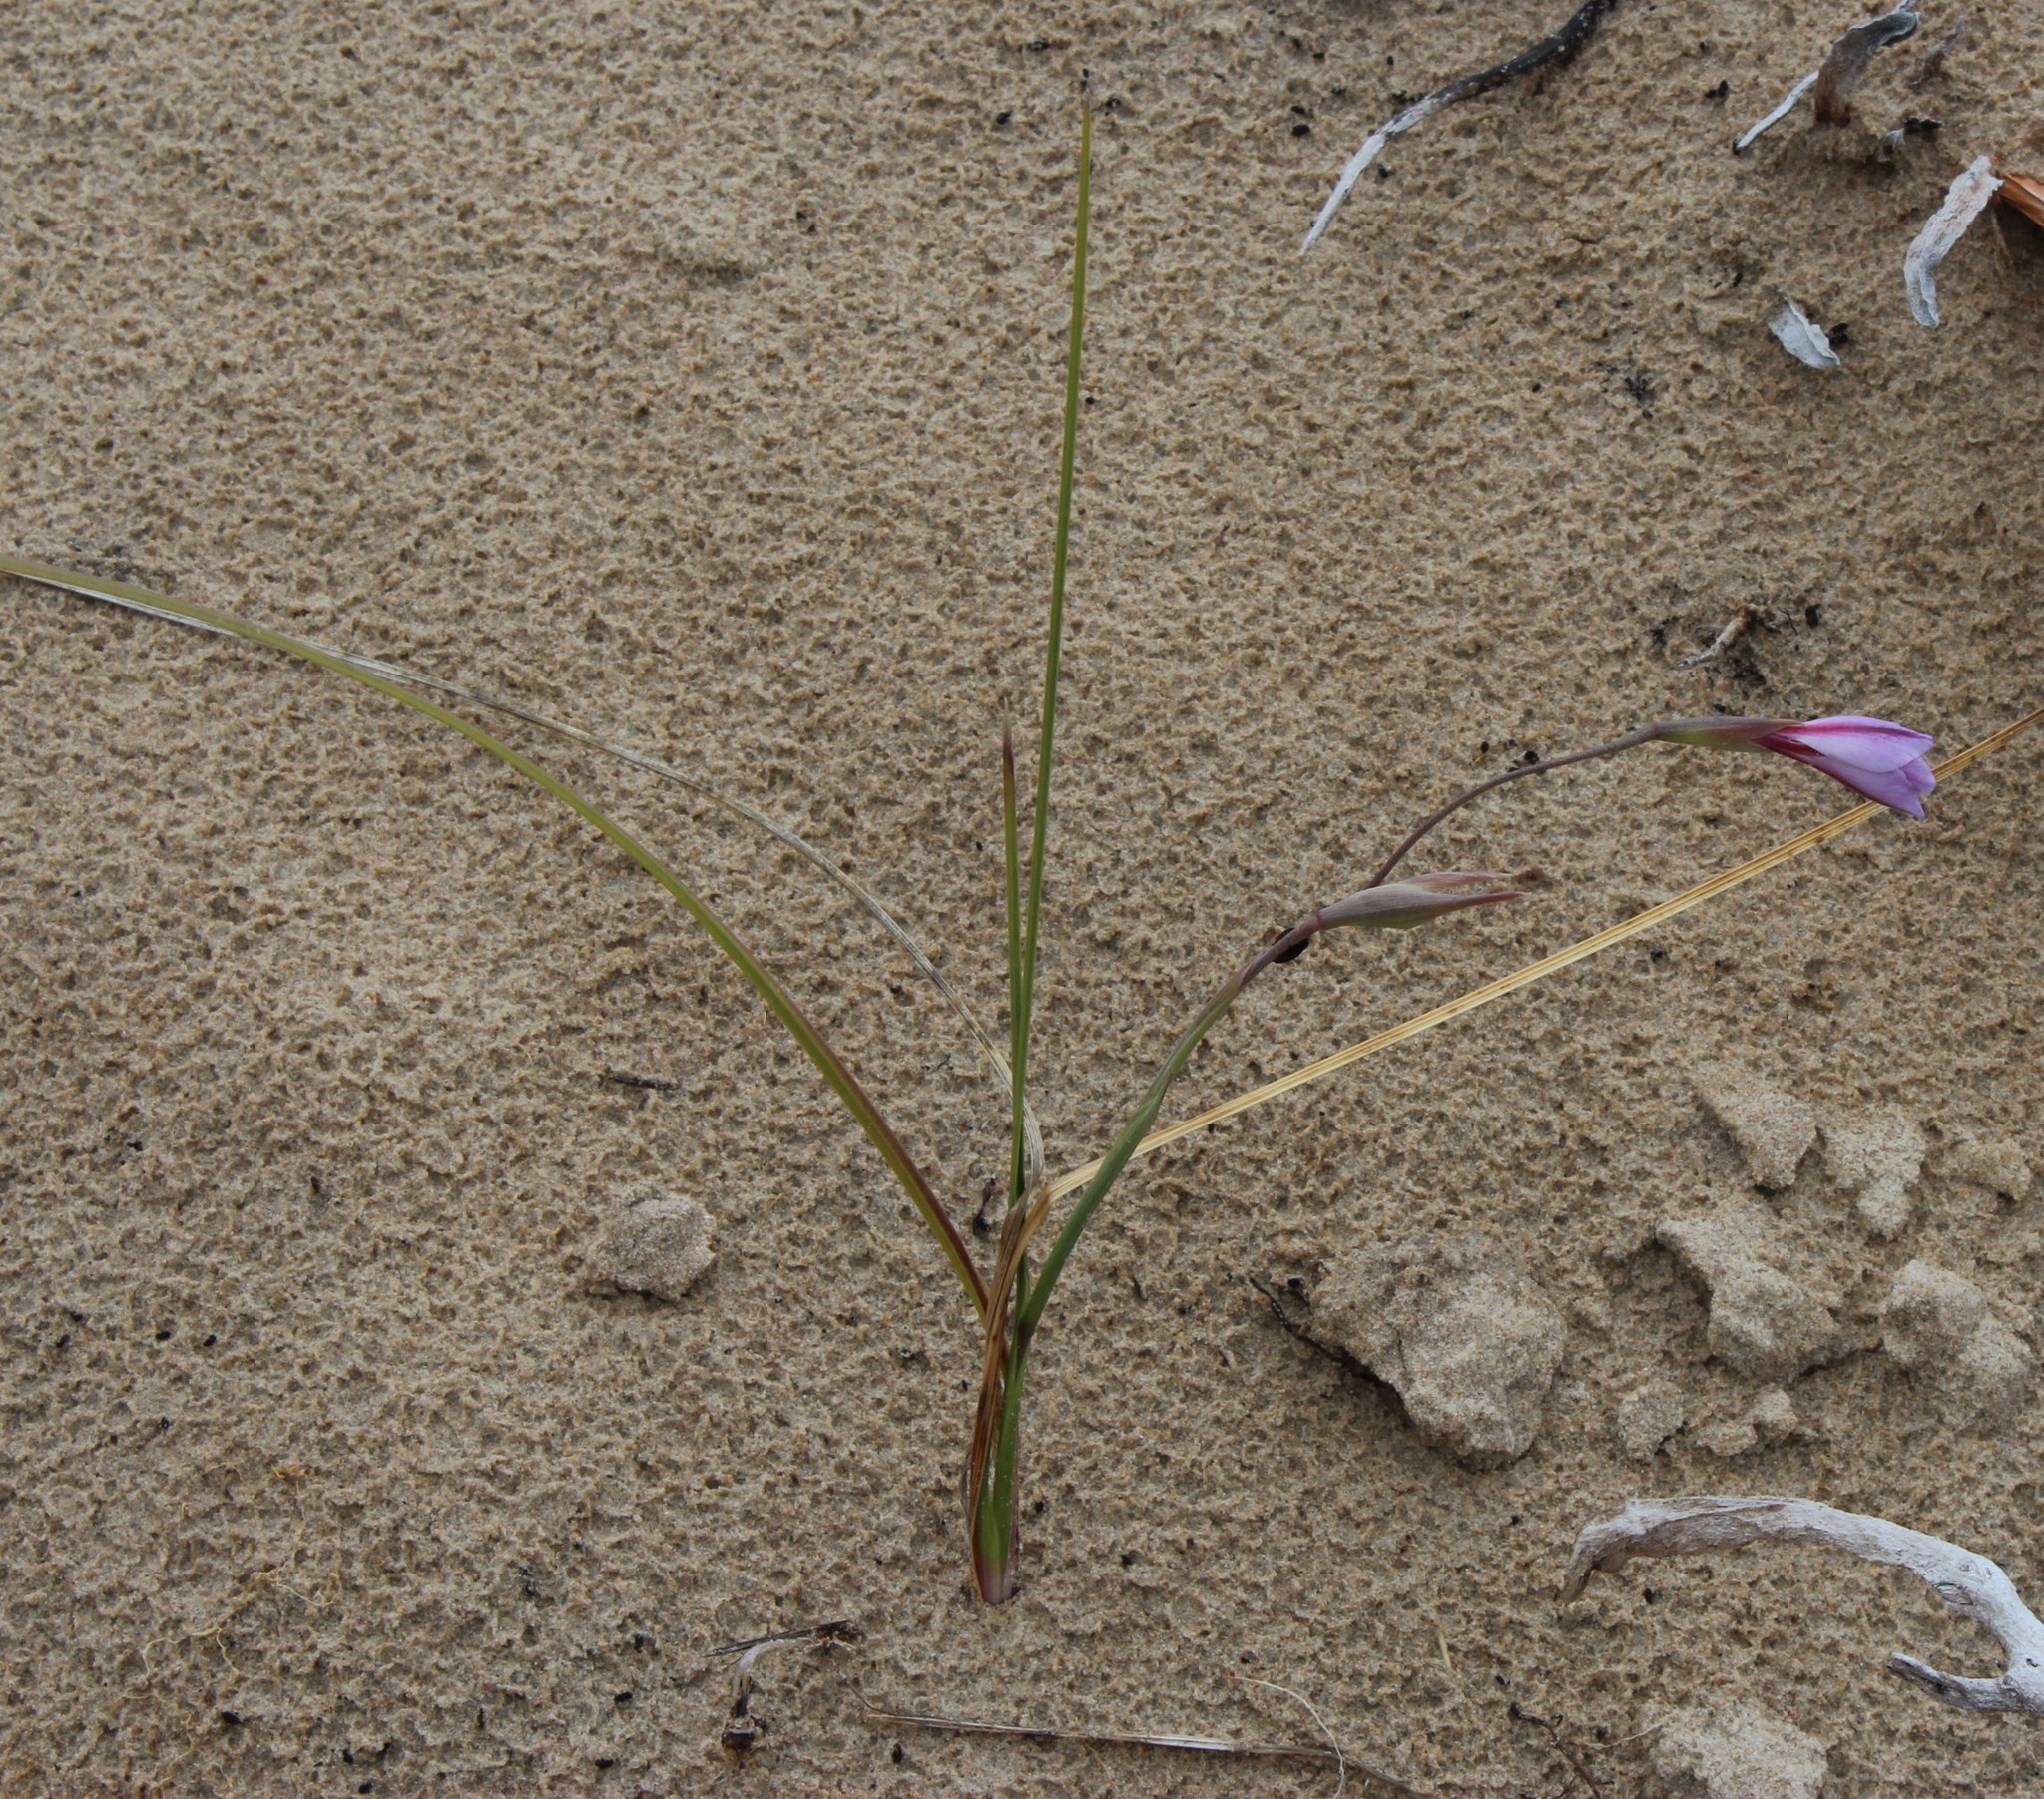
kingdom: Plantae
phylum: Tracheophyta
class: Liliopsida
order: Asparagales
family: Iridaceae
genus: Gladiolus
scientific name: Gladiolus gueinzii
